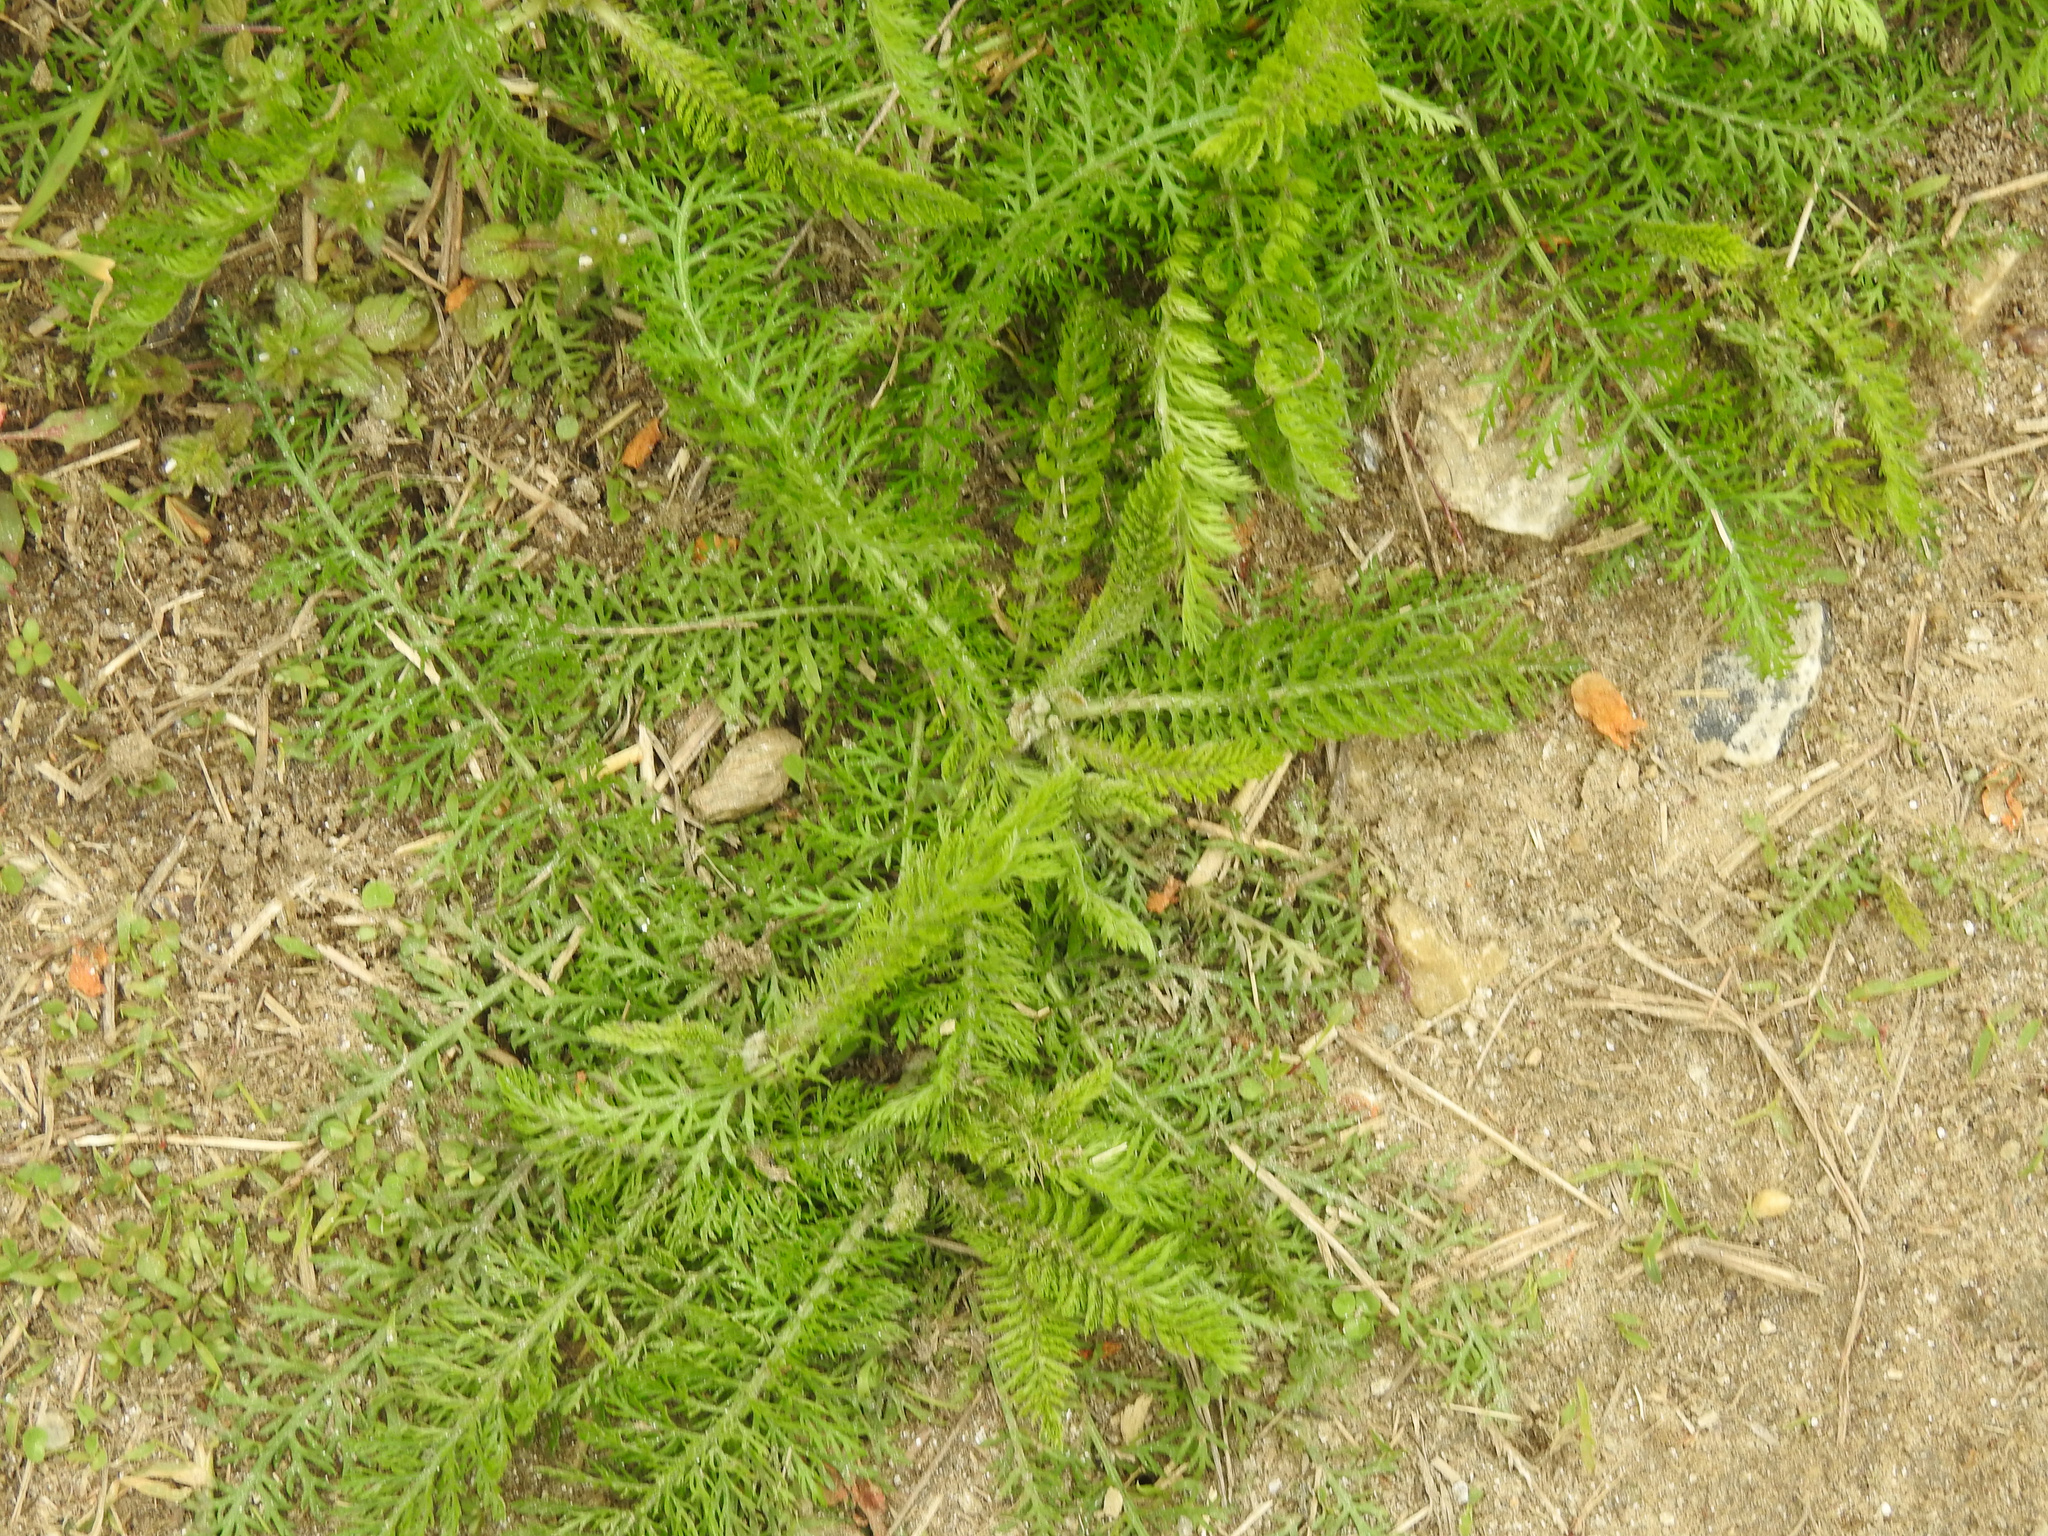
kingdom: Plantae
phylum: Tracheophyta
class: Magnoliopsida
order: Asterales
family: Asteraceae
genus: Achillea
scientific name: Achillea millefolium
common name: Yarrow
